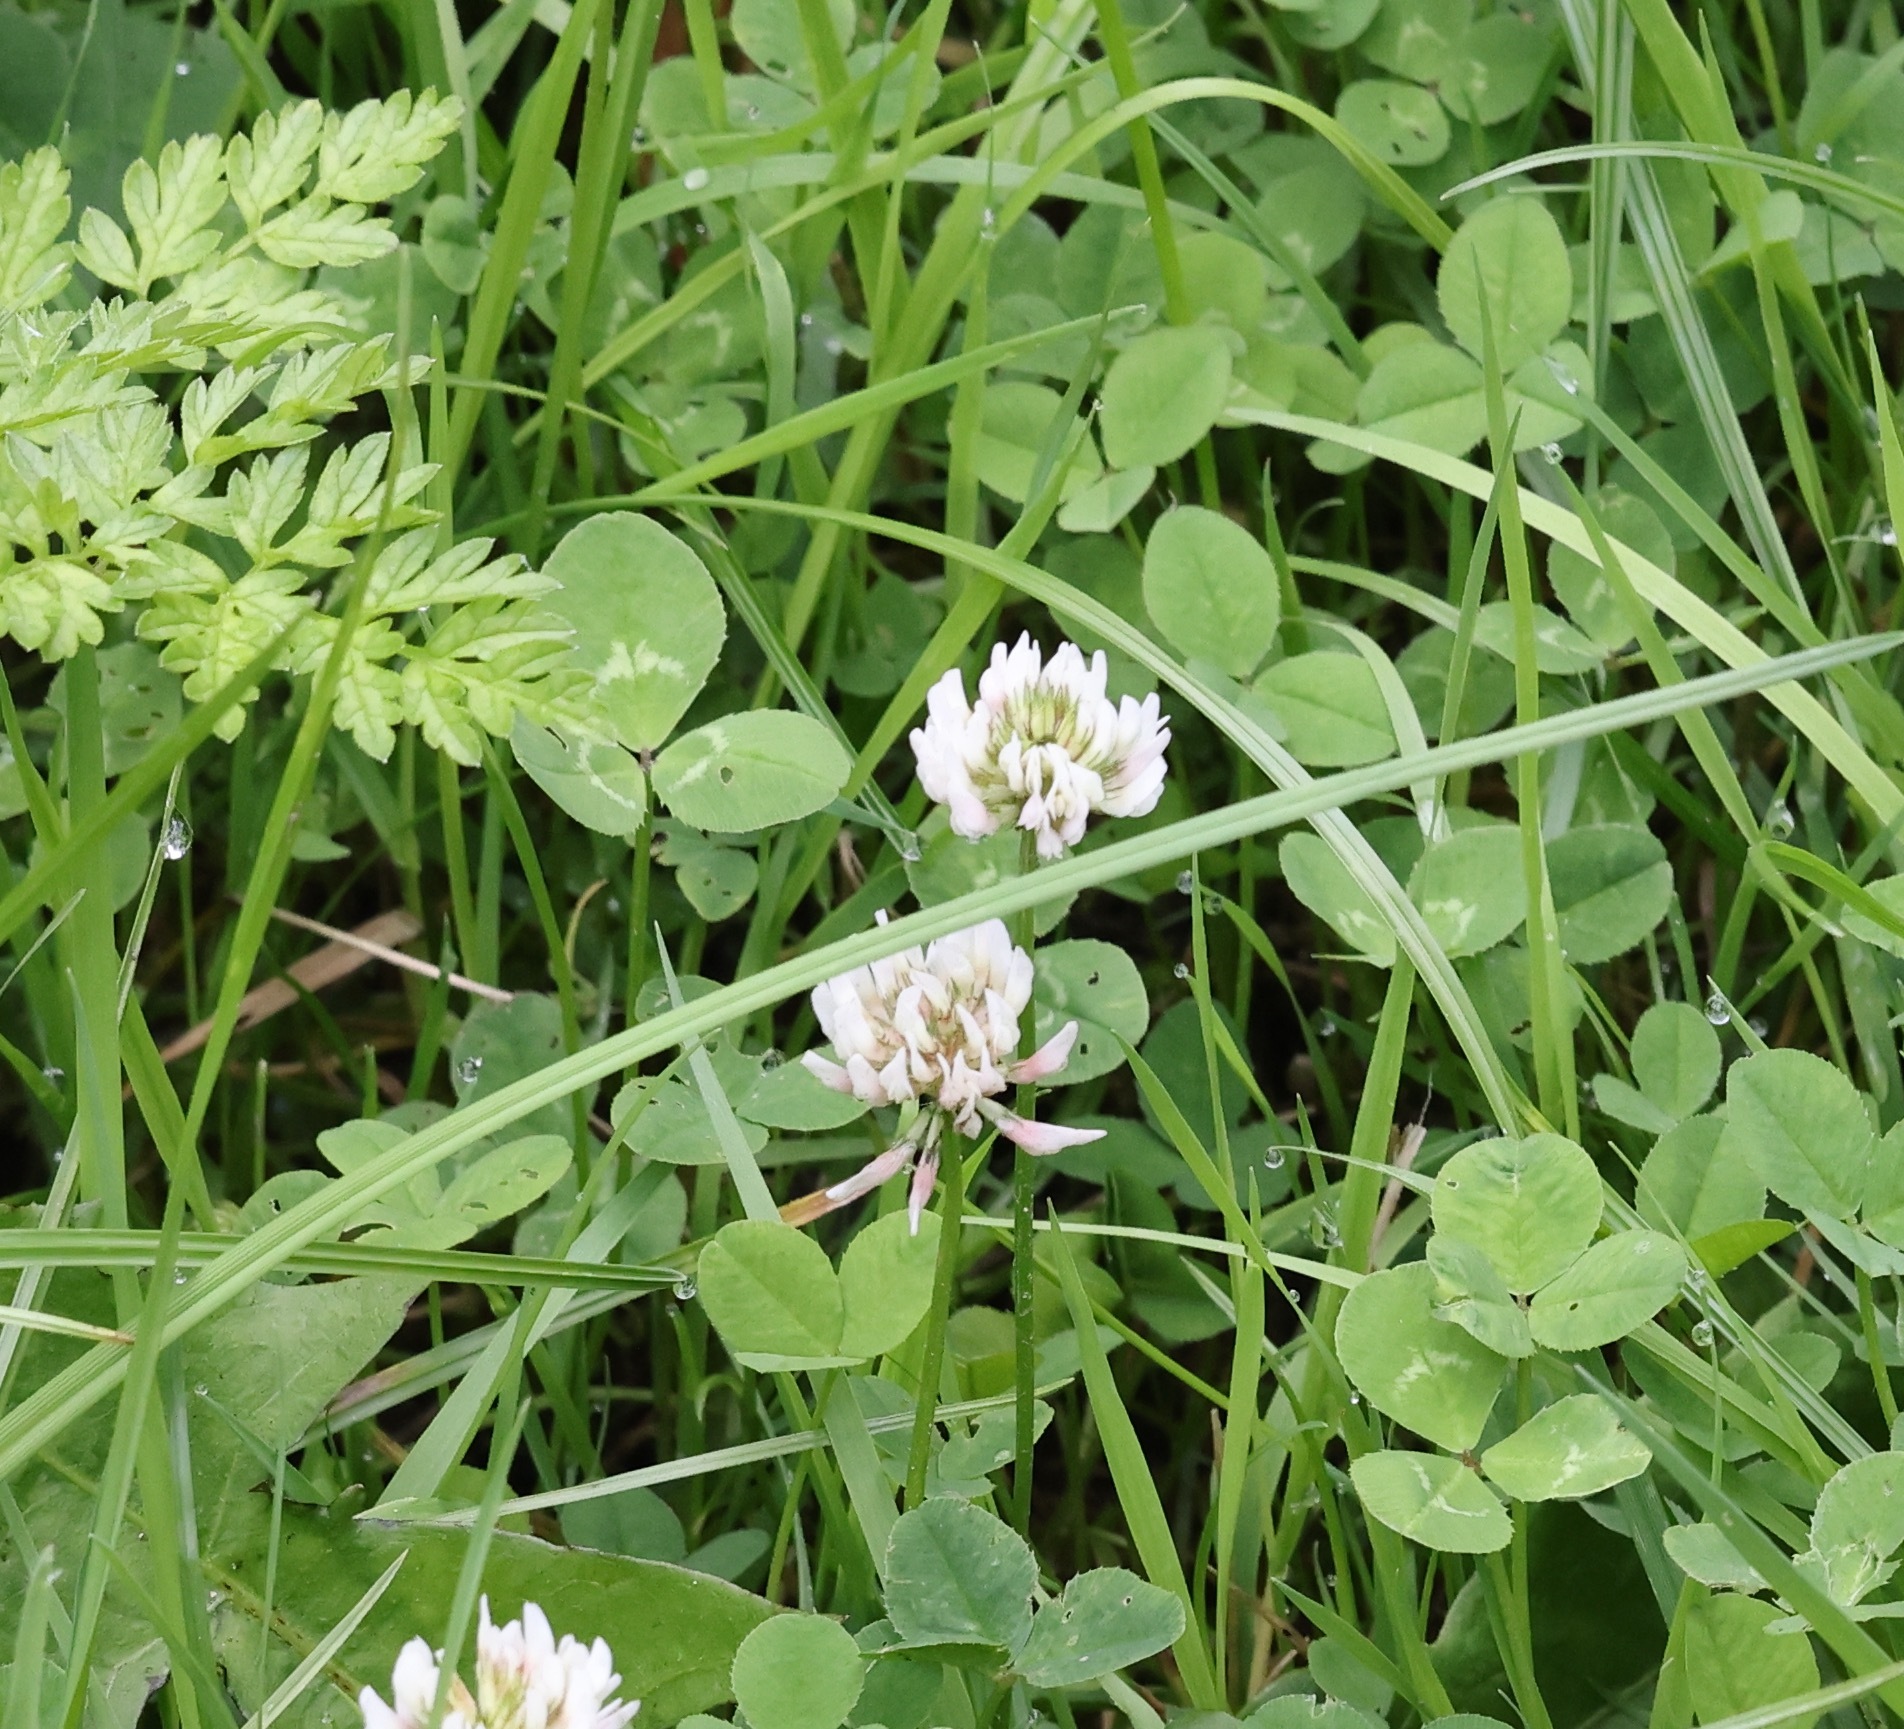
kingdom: Plantae
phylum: Tracheophyta
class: Magnoliopsida
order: Fabales
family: Fabaceae
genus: Trifolium
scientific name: Trifolium repens
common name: White clover
